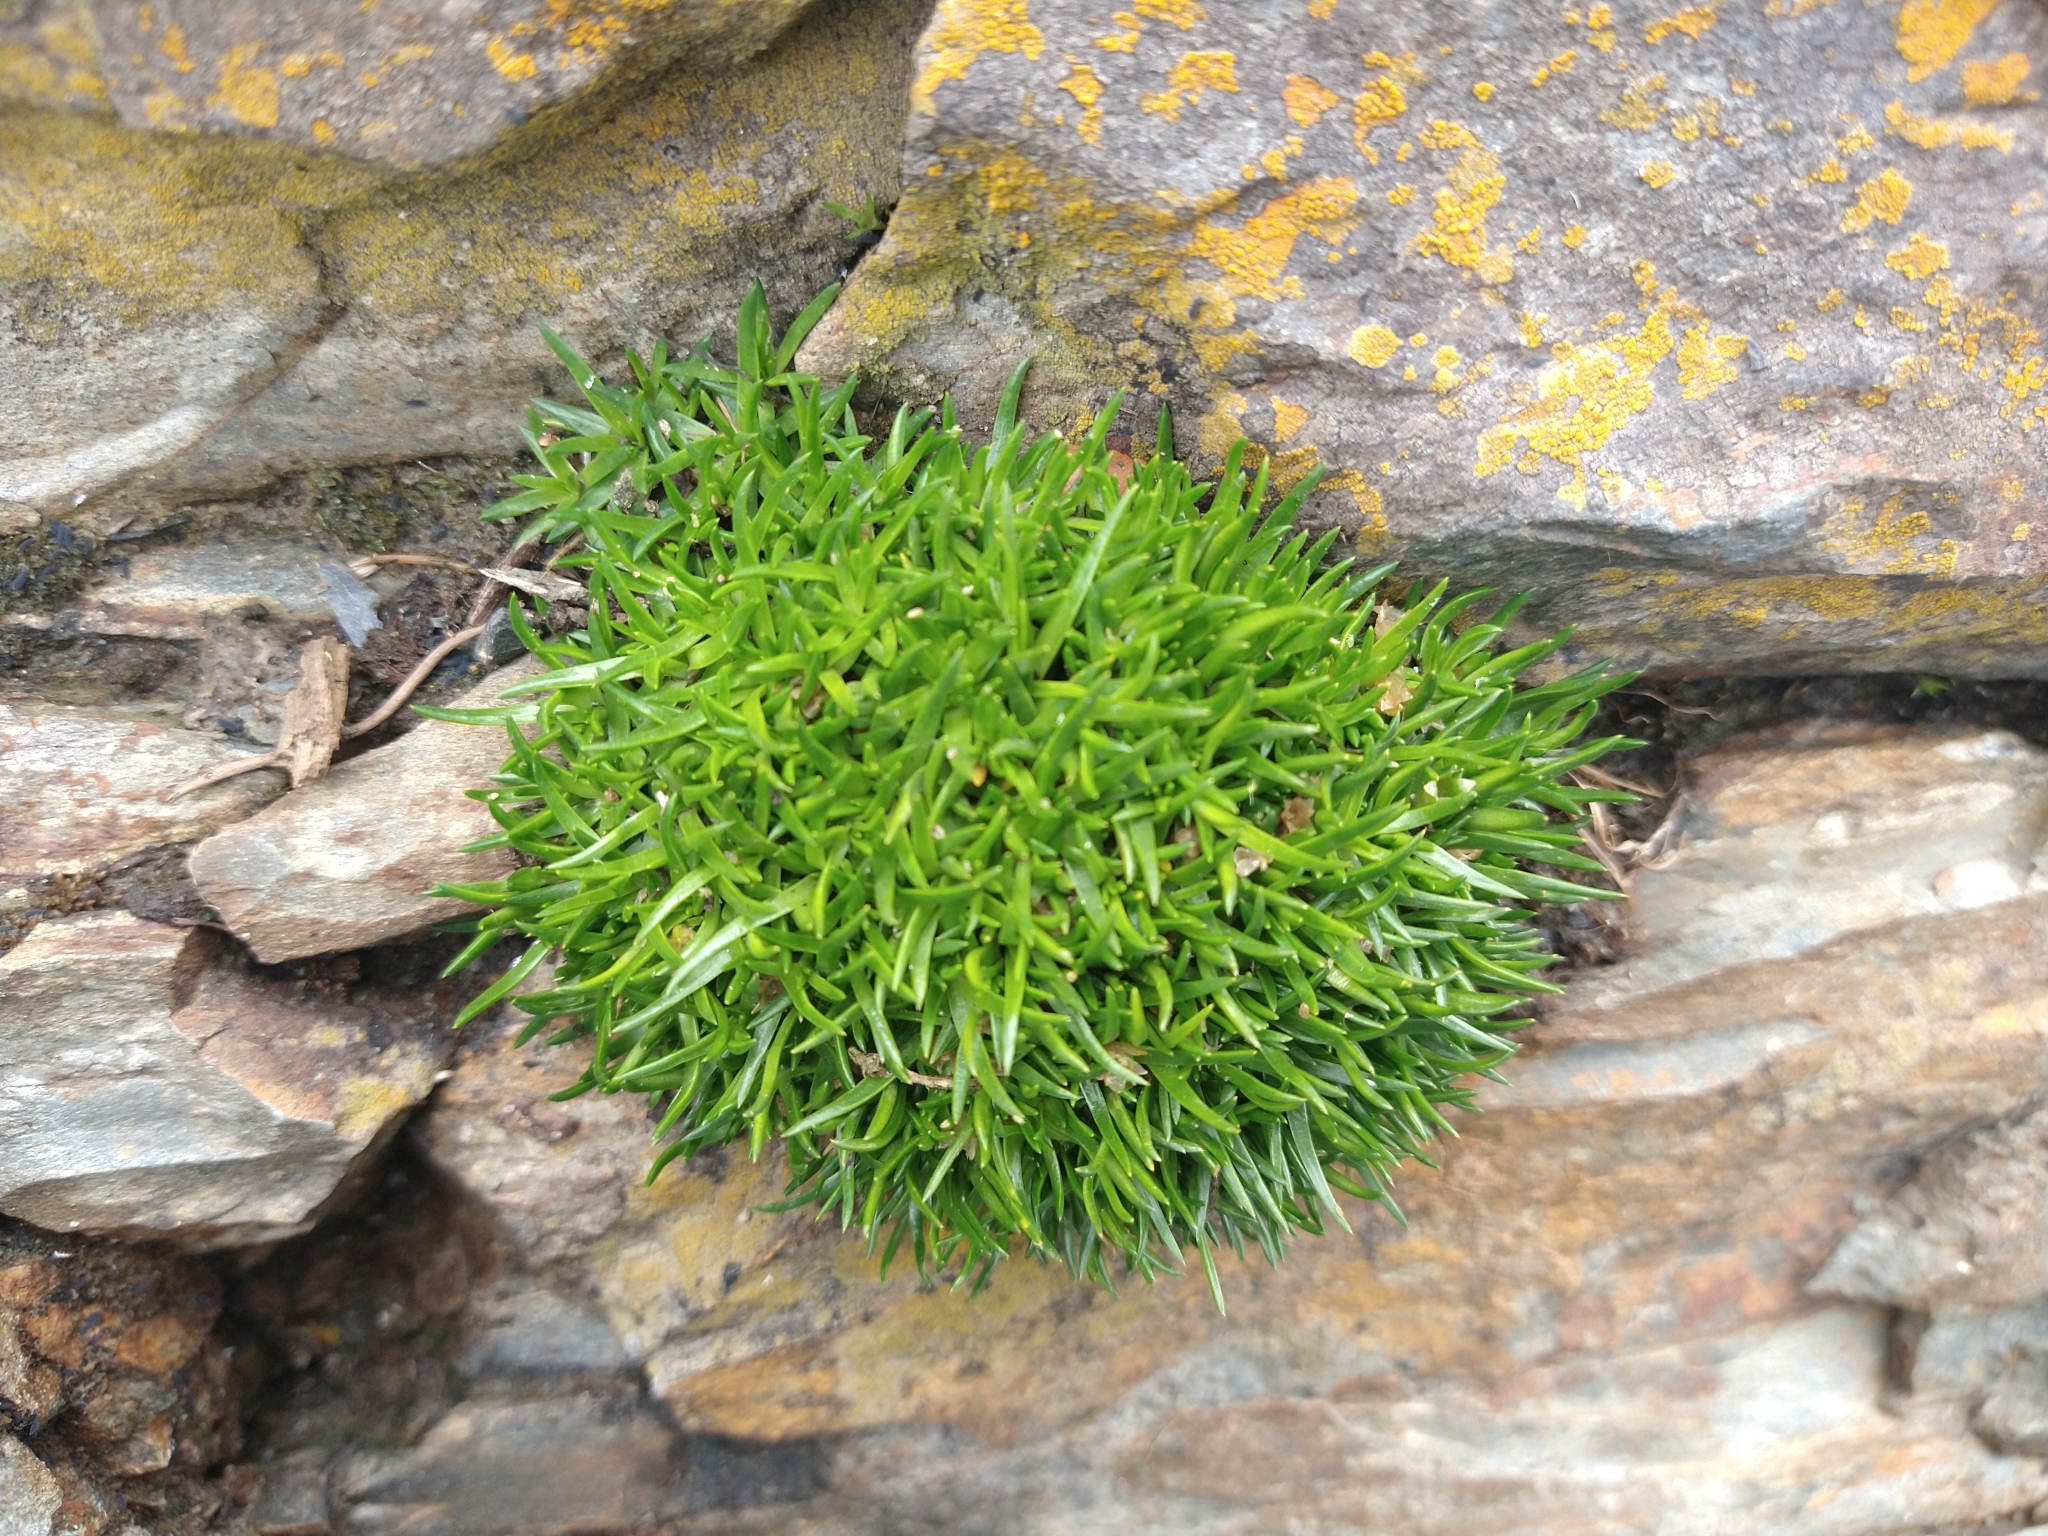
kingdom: Plantae
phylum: Tracheophyta
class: Magnoliopsida
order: Caryophyllales
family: Caryophyllaceae
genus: Colobanthus
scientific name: Colobanthus quitensis
